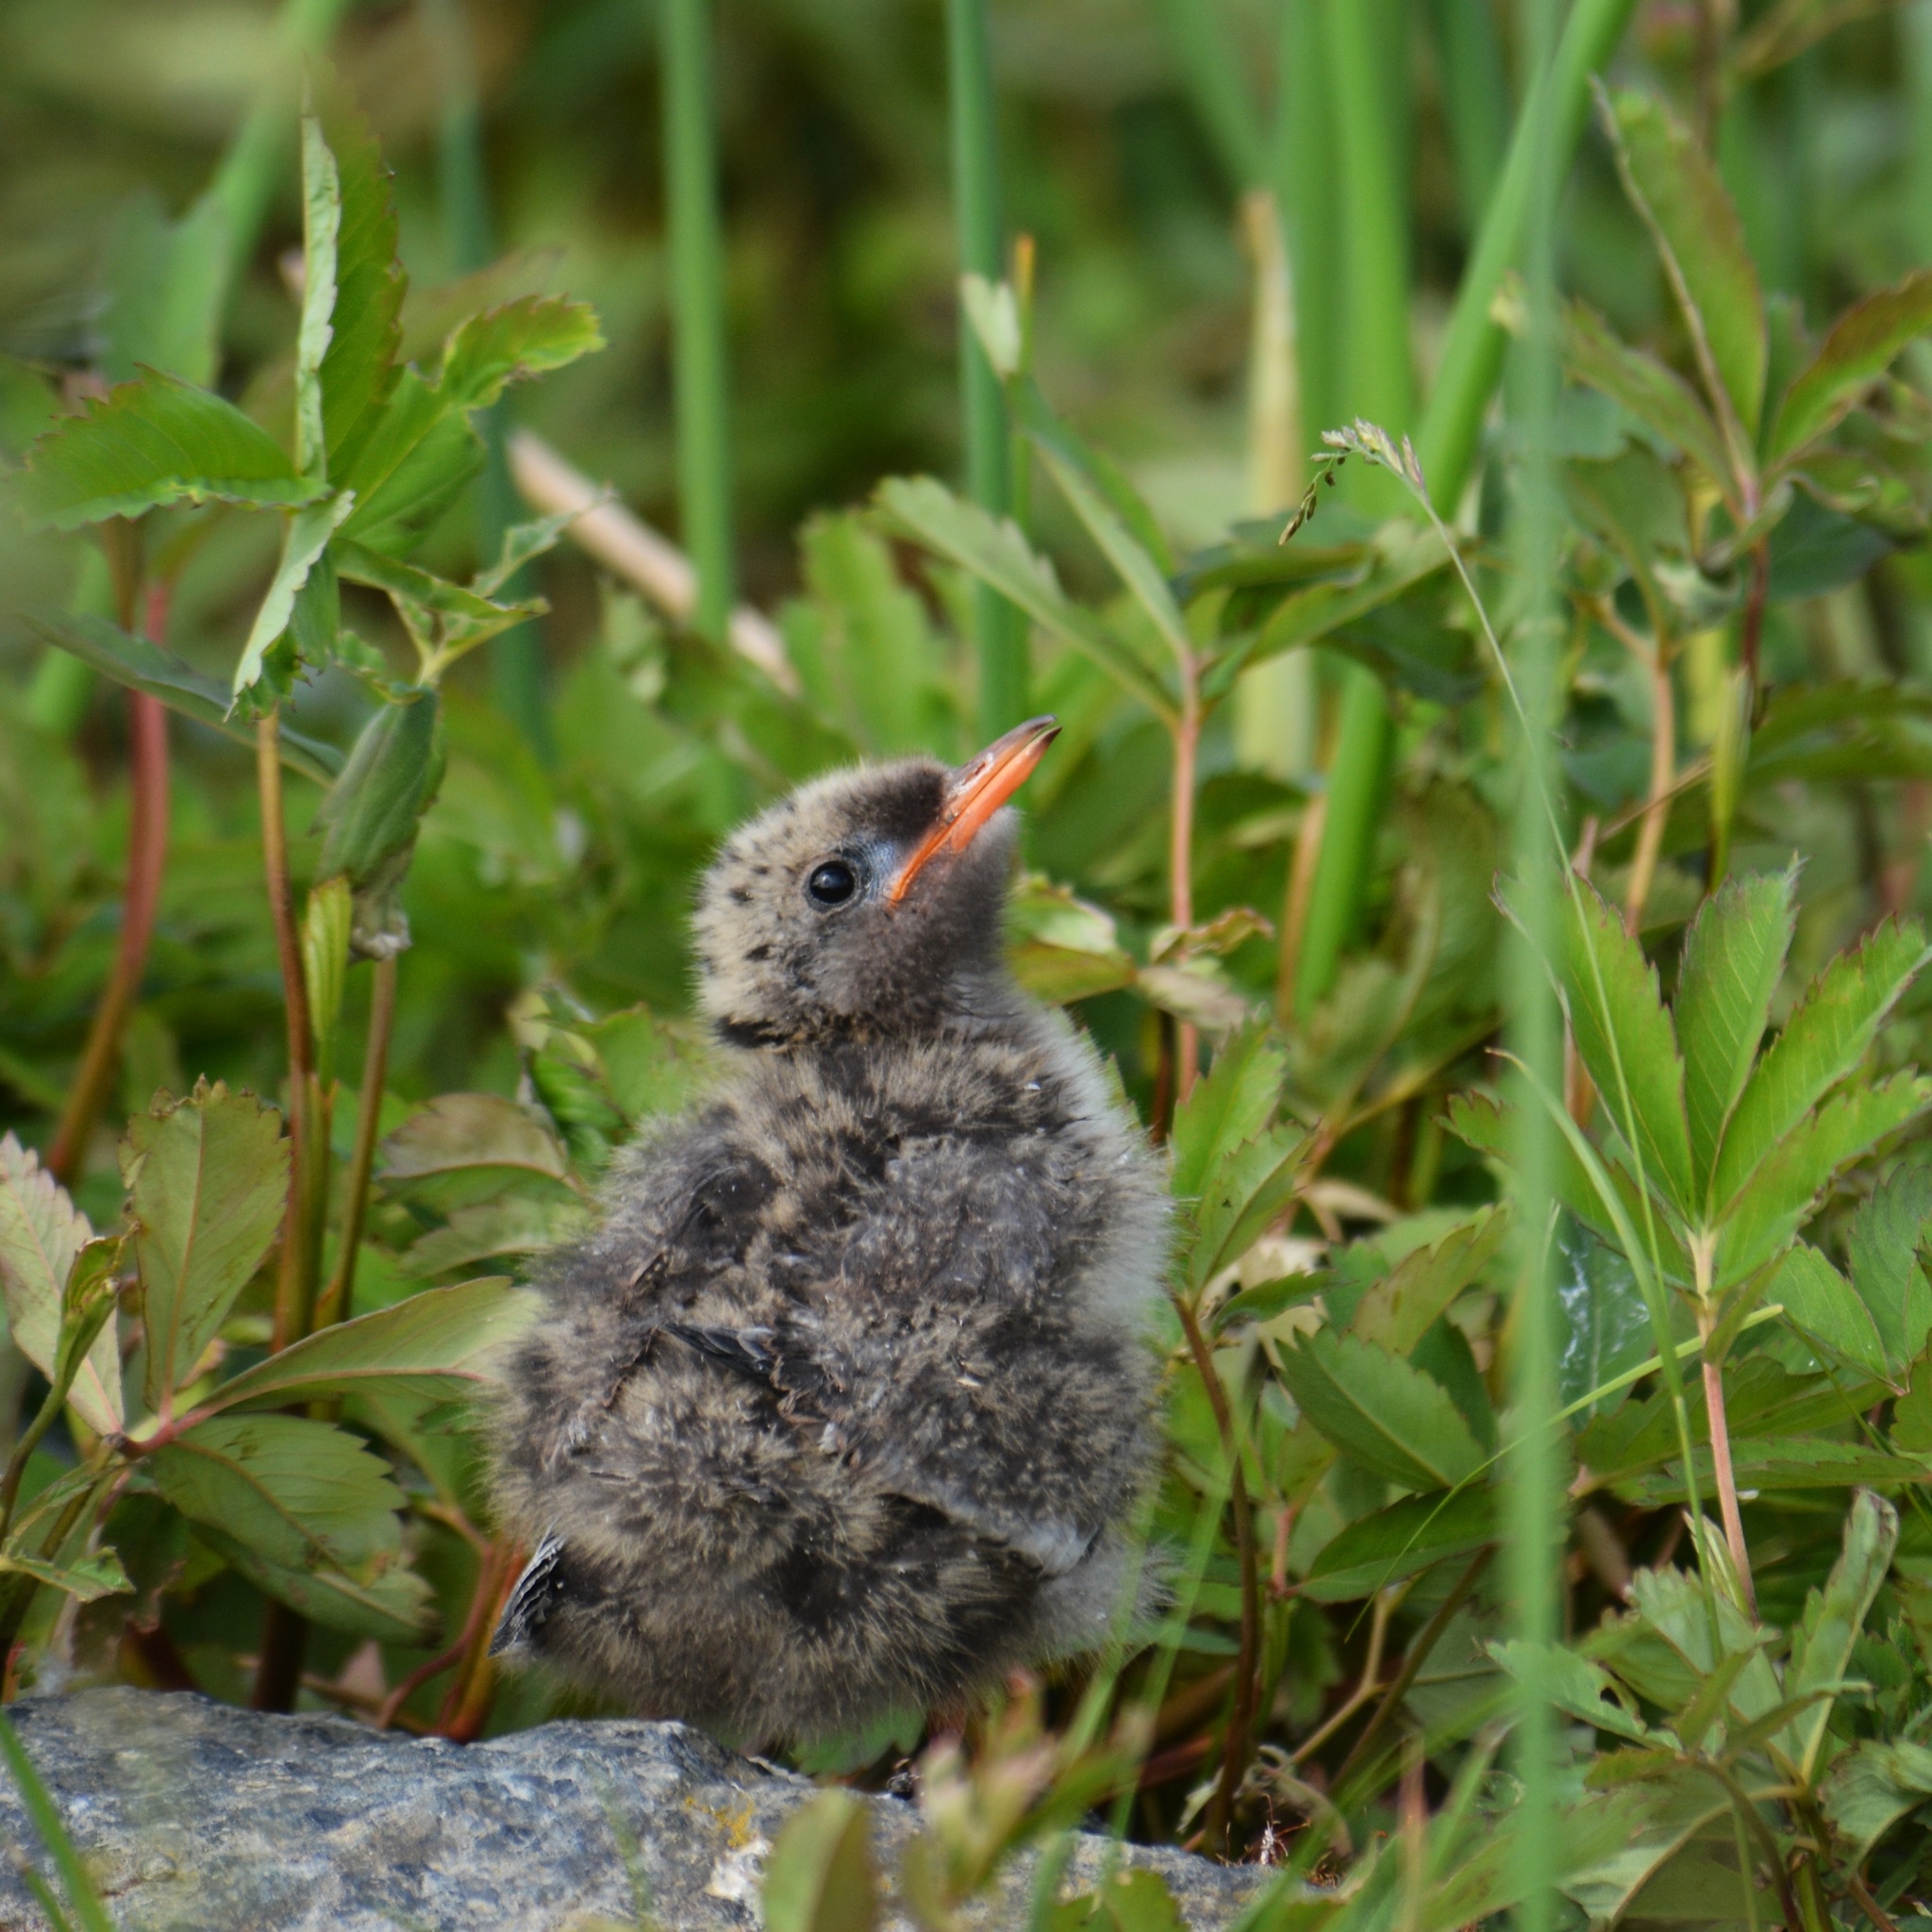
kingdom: Animalia
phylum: Chordata
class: Aves
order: Charadriiformes
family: Laridae
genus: Sterna
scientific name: Sterna paradisaea
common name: Arctic tern
